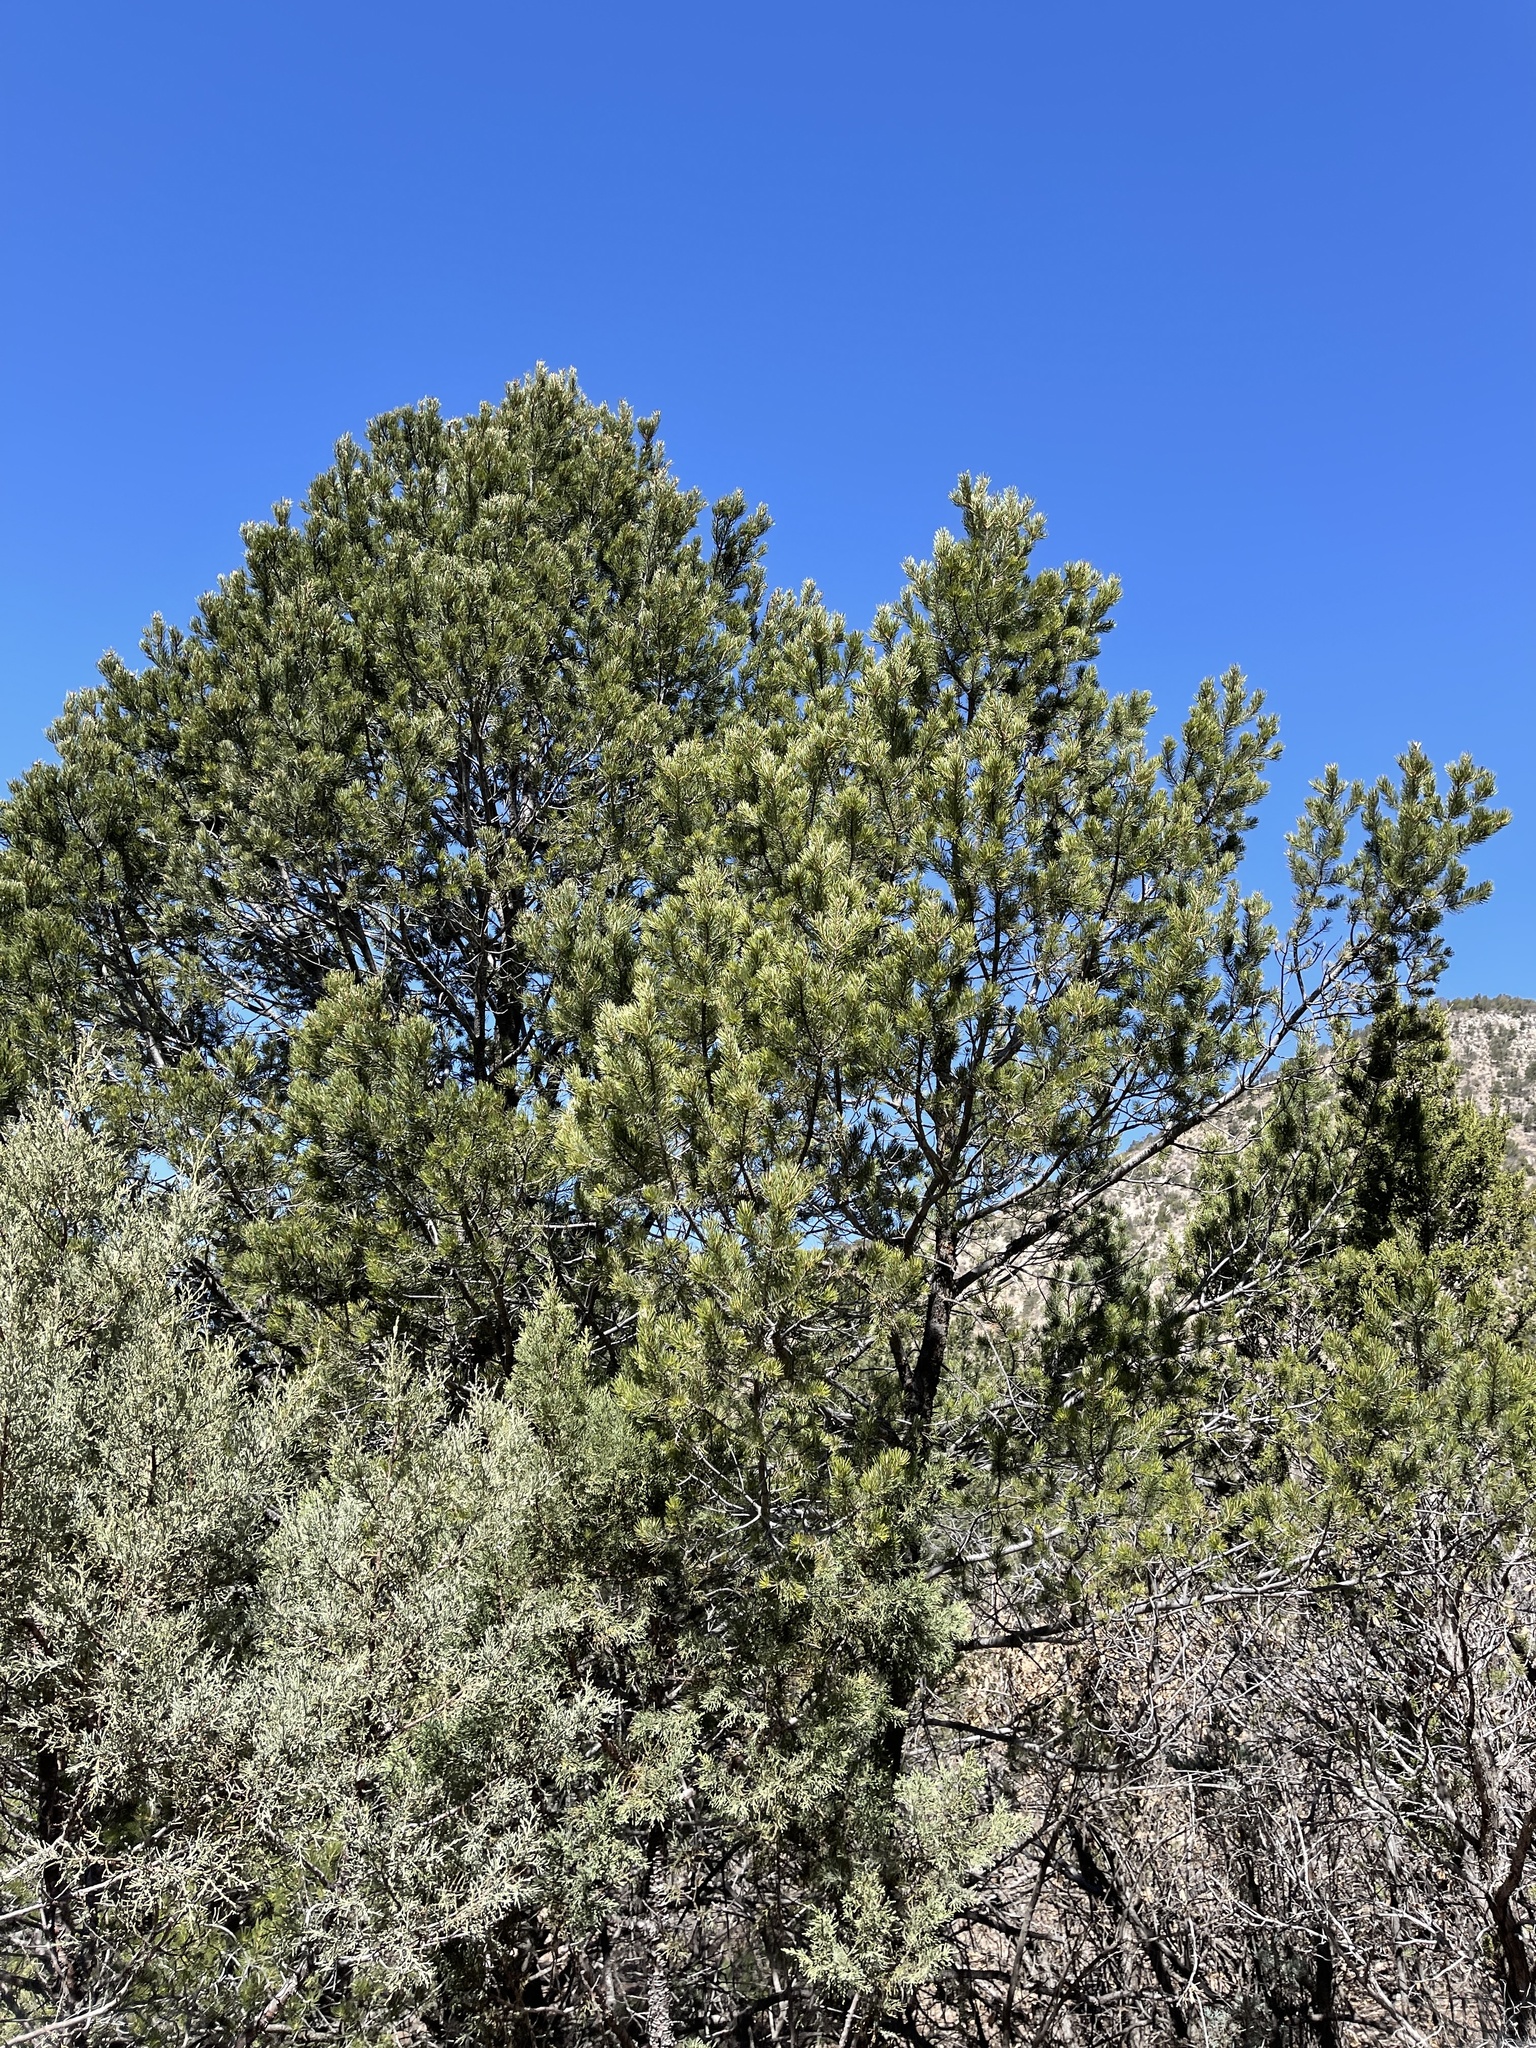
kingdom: Plantae
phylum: Tracheophyta
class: Pinopsida
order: Pinales
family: Pinaceae
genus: Pinus
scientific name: Pinus edulis
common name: Colorado pinyon
